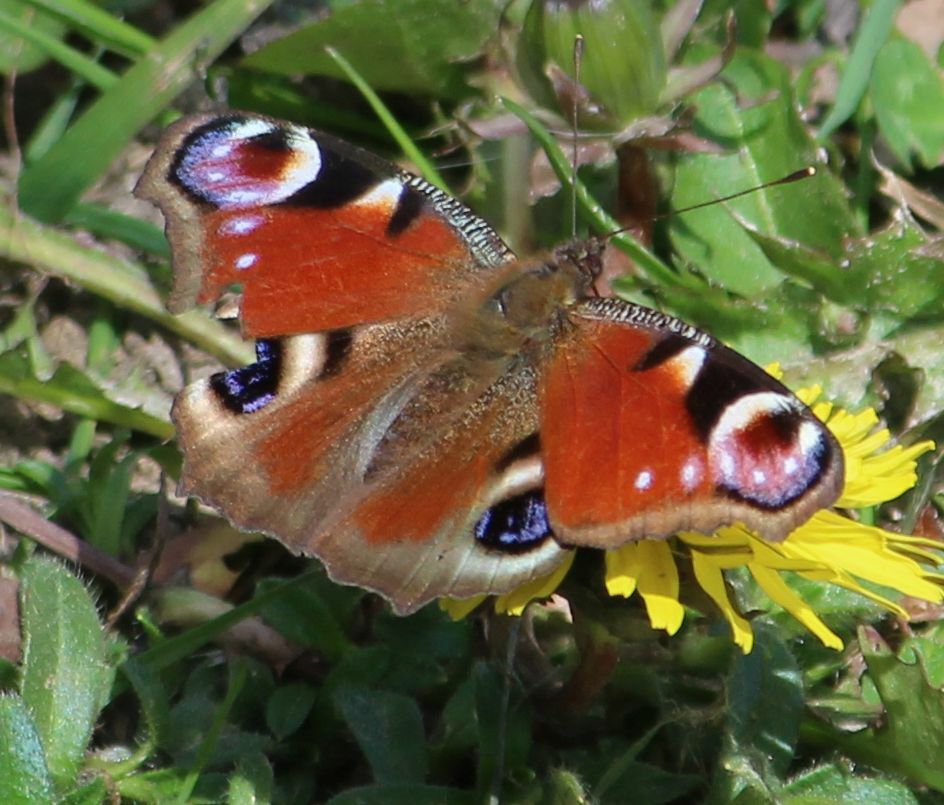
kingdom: Animalia
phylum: Arthropoda
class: Insecta
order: Lepidoptera
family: Nymphalidae
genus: Aglais
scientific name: Aglais io
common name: Peacock
